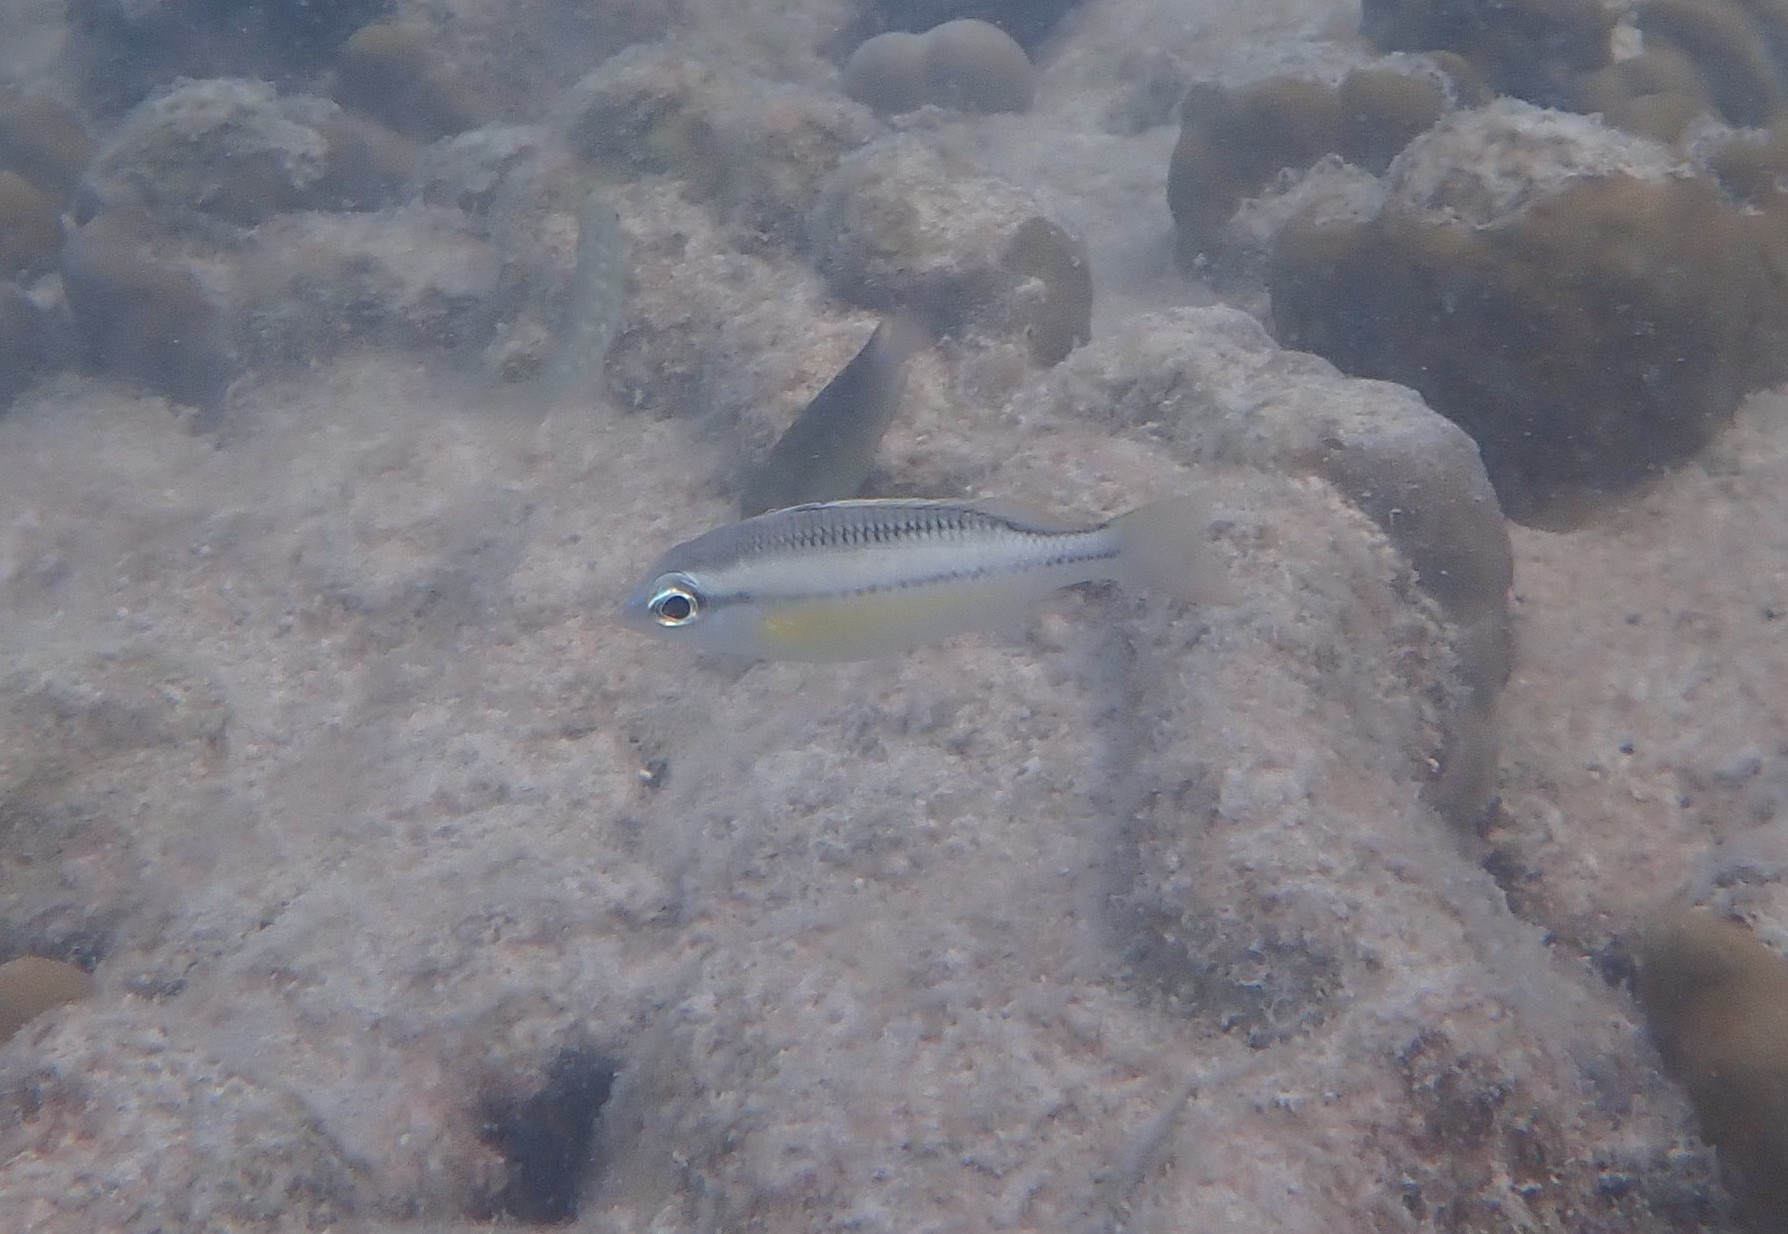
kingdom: Animalia
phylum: Chordata
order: Perciformes
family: Nemipteridae
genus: Scolopsis
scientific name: Scolopsis margaritifera
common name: Pearly monocle bream
